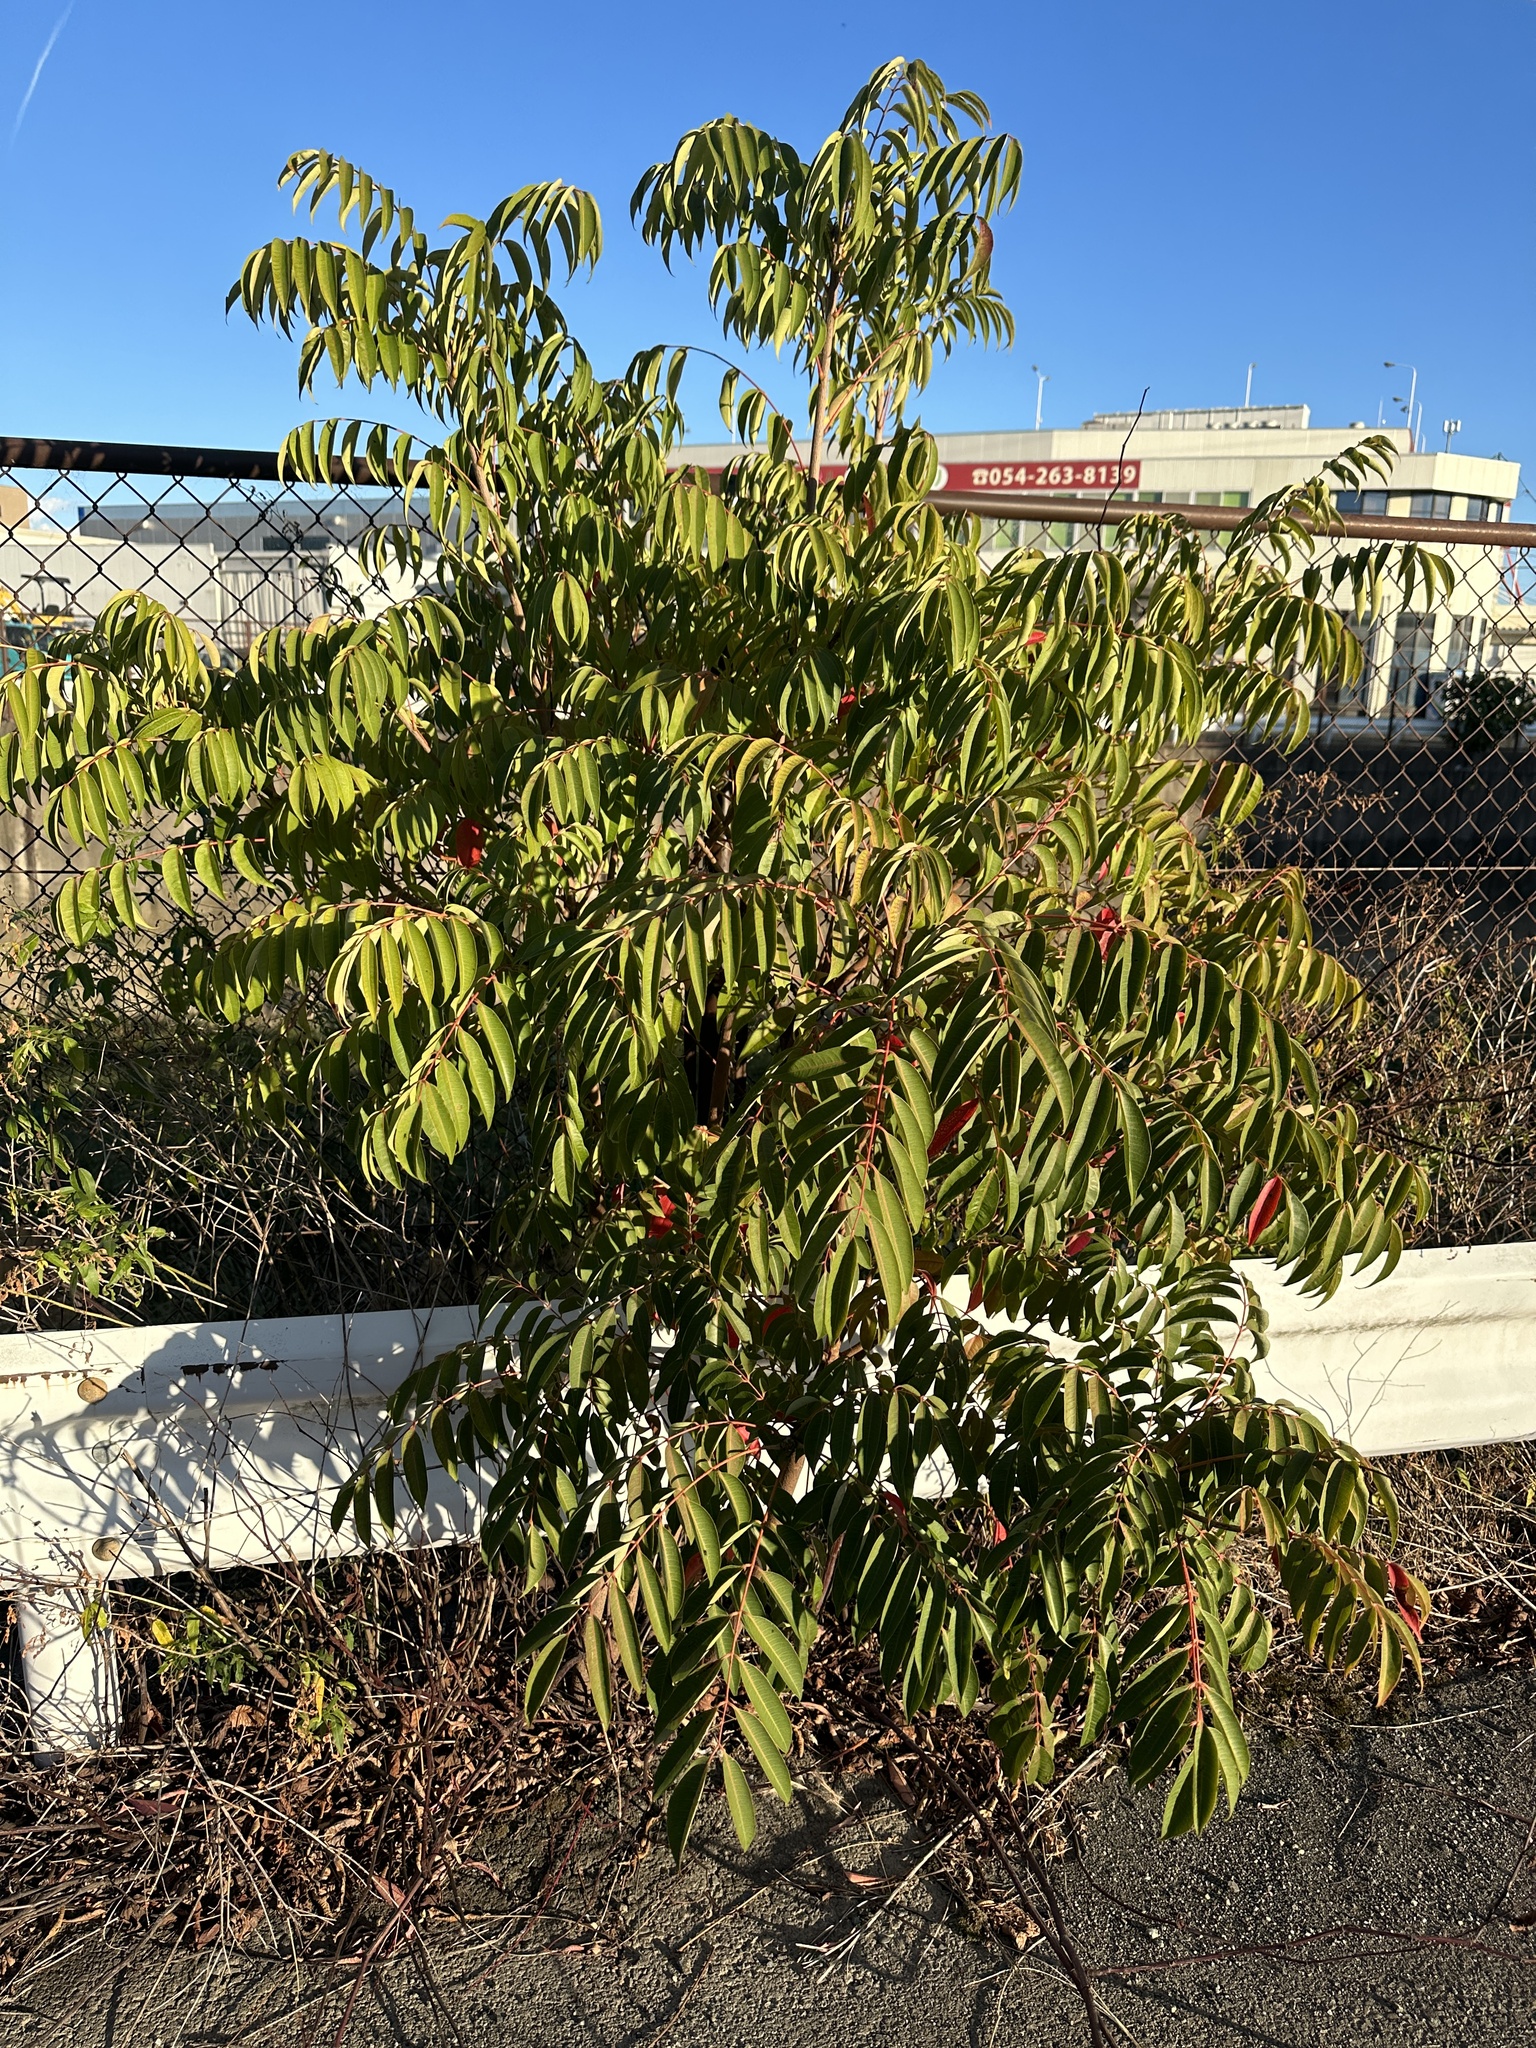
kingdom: Plantae
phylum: Tracheophyta
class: Magnoliopsida
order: Sapindales
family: Anacardiaceae
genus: Toxicodendron
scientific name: Toxicodendron succedaneum
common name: Wax tree
